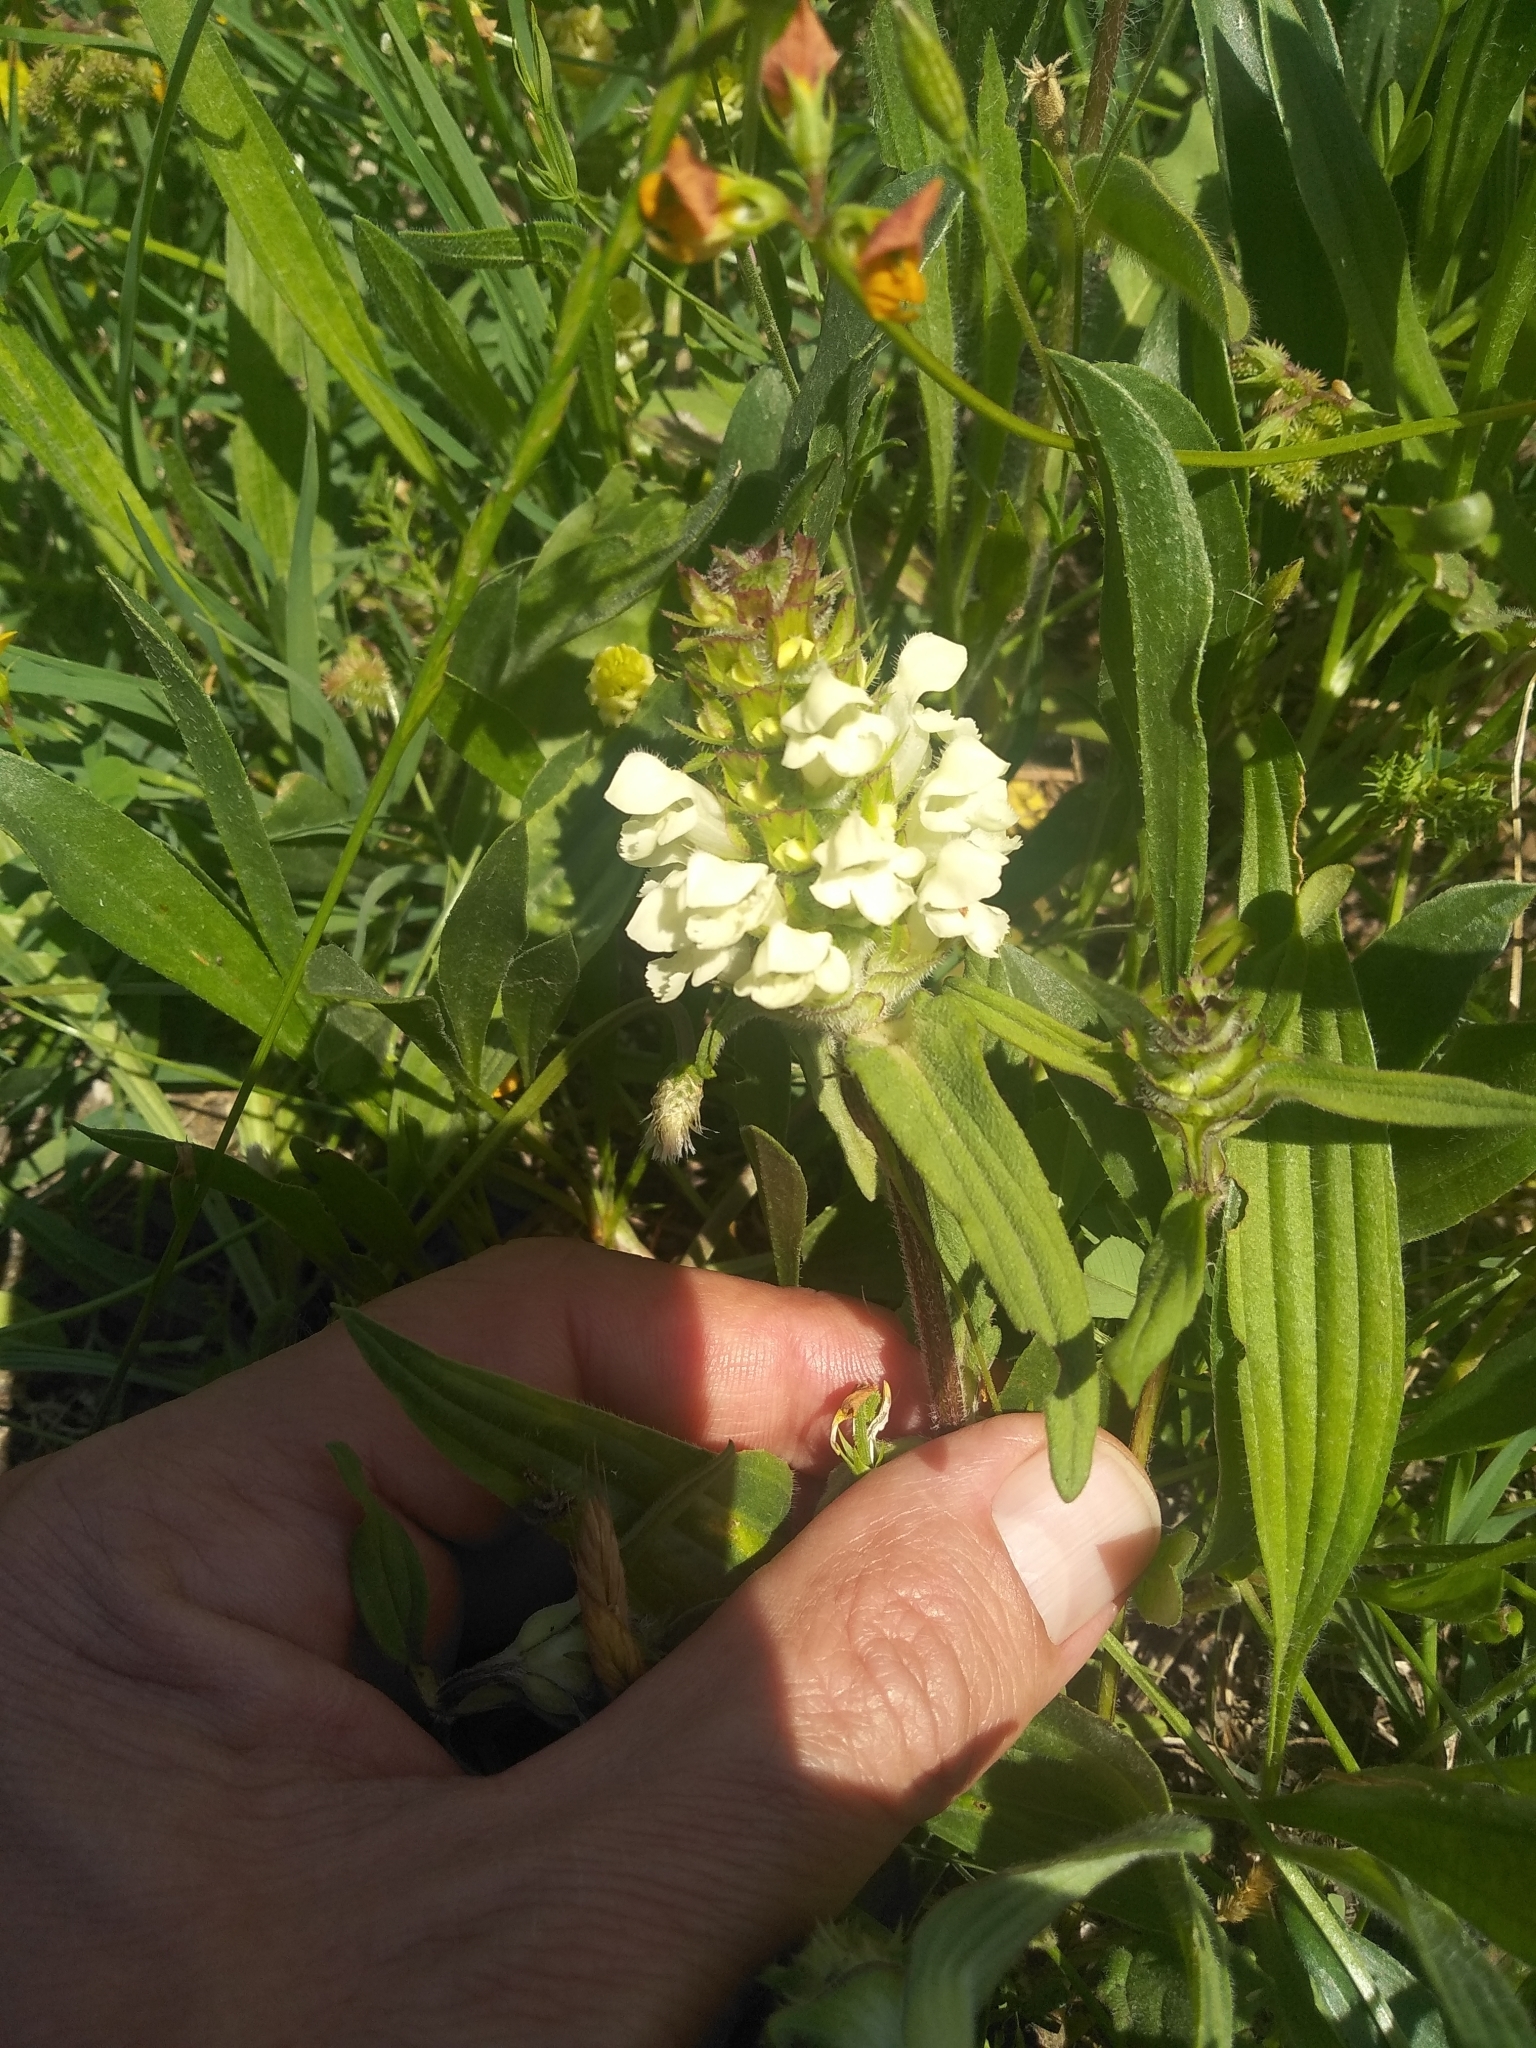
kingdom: Plantae
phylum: Tracheophyta
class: Magnoliopsida
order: Lamiales
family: Lamiaceae
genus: Prunella
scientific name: Prunella laciniata
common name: Cut-leaved selfheal
